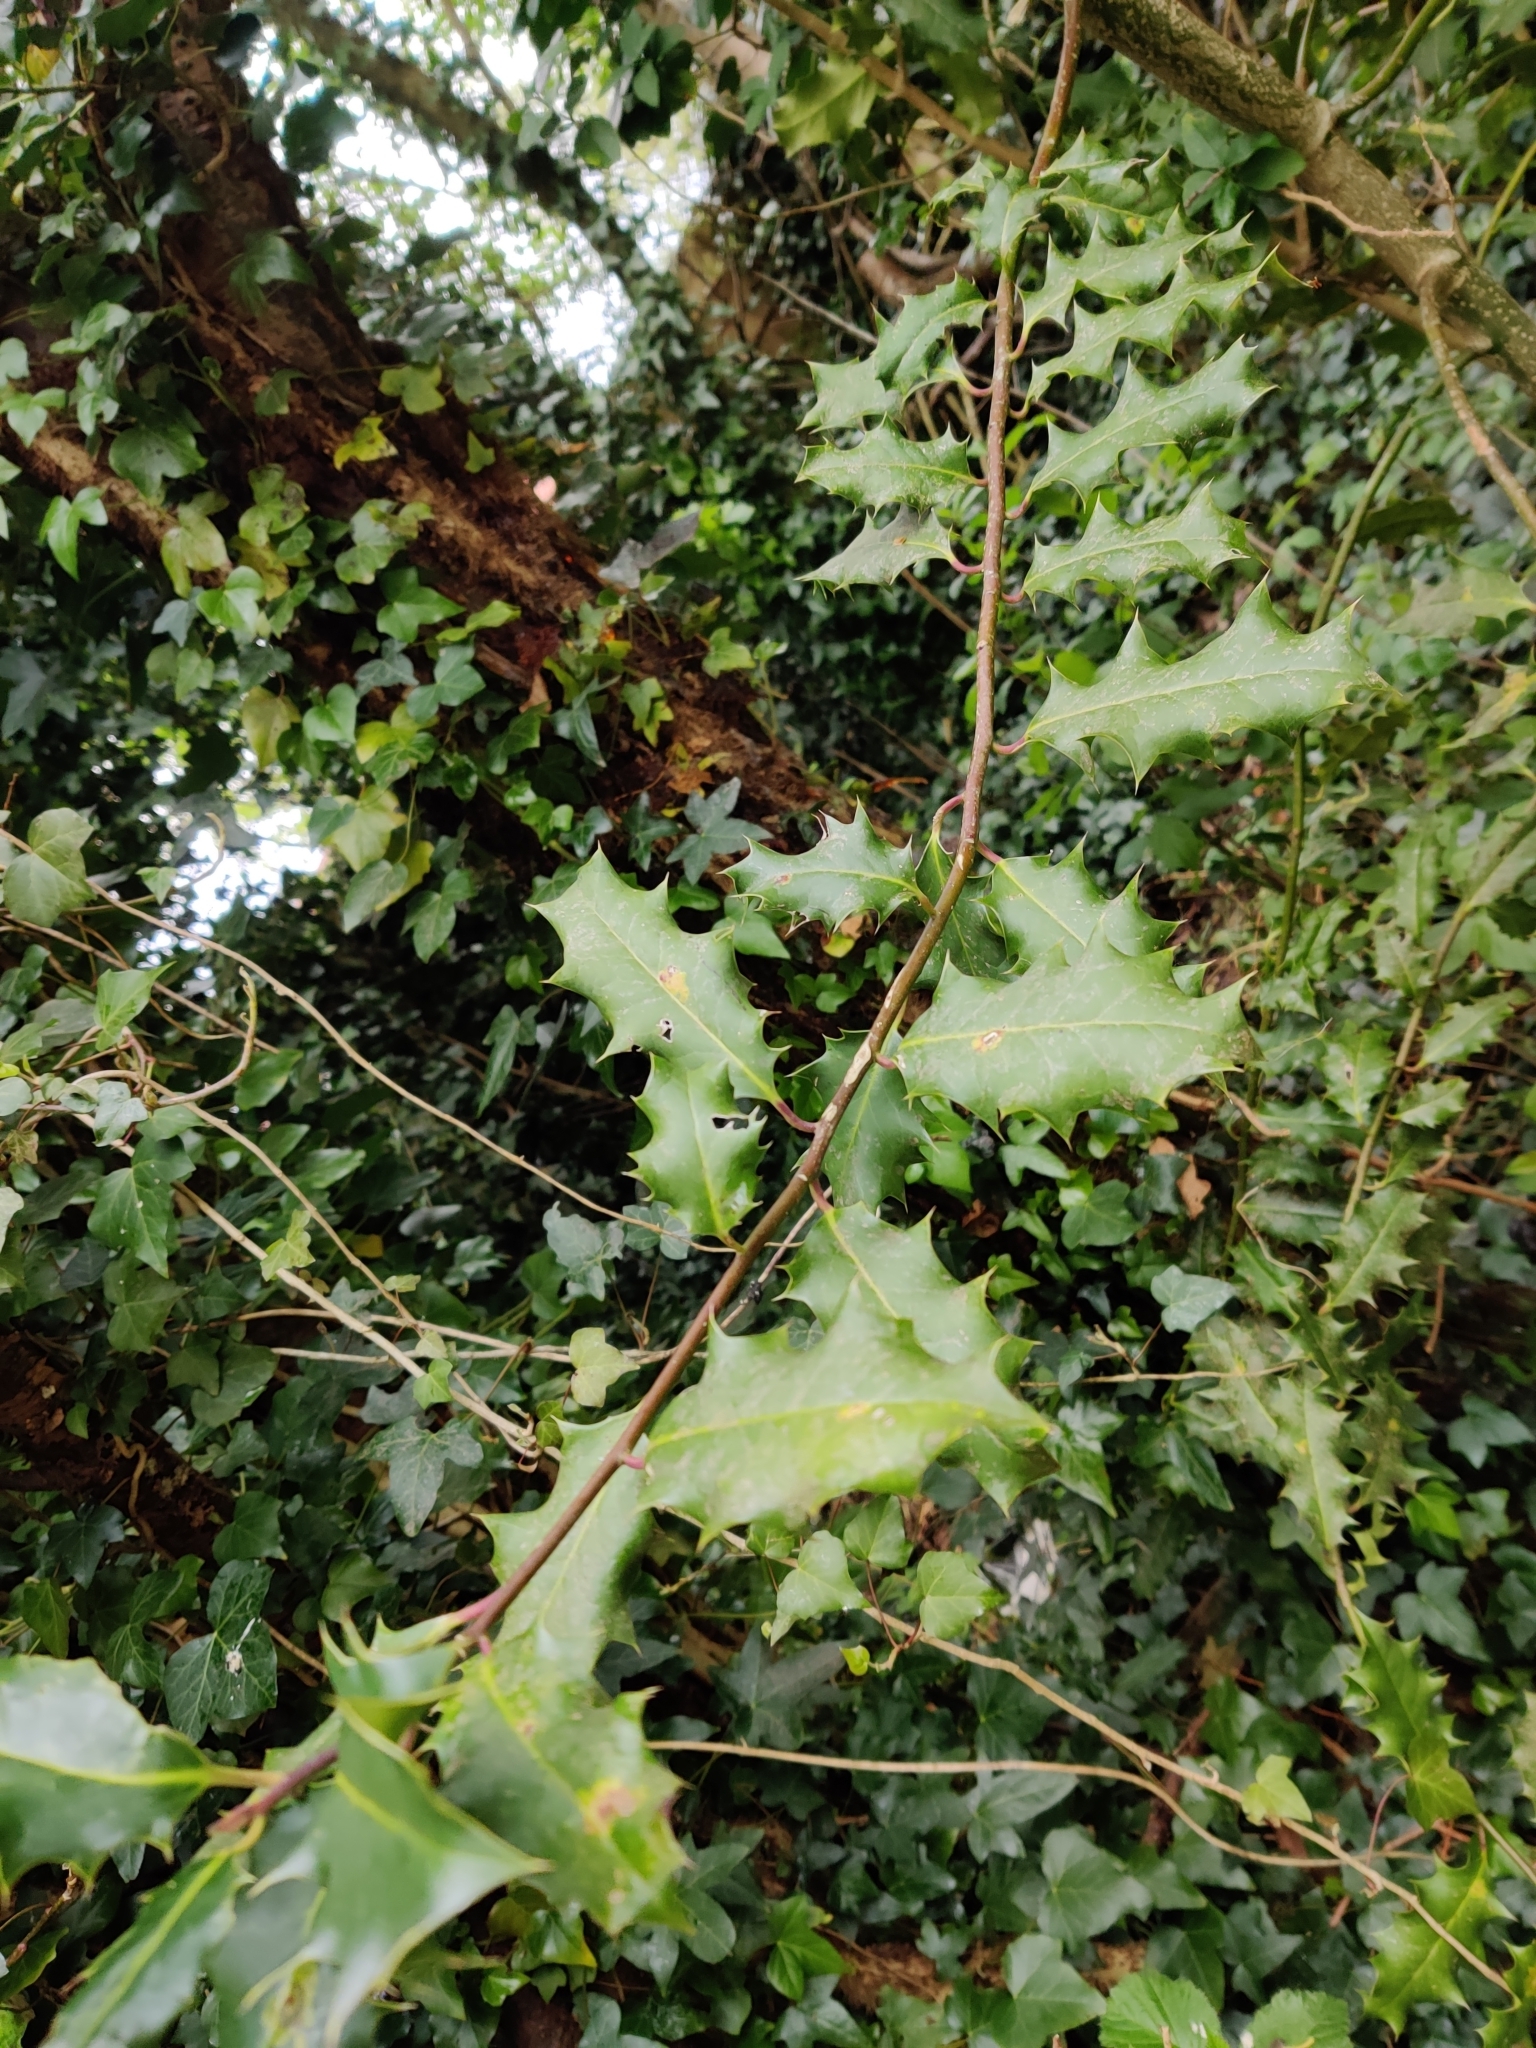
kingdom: Plantae
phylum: Tracheophyta
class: Magnoliopsida
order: Aquifoliales
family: Aquifoliaceae
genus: Ilex
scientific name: Ilex aquifolium
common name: English holly
